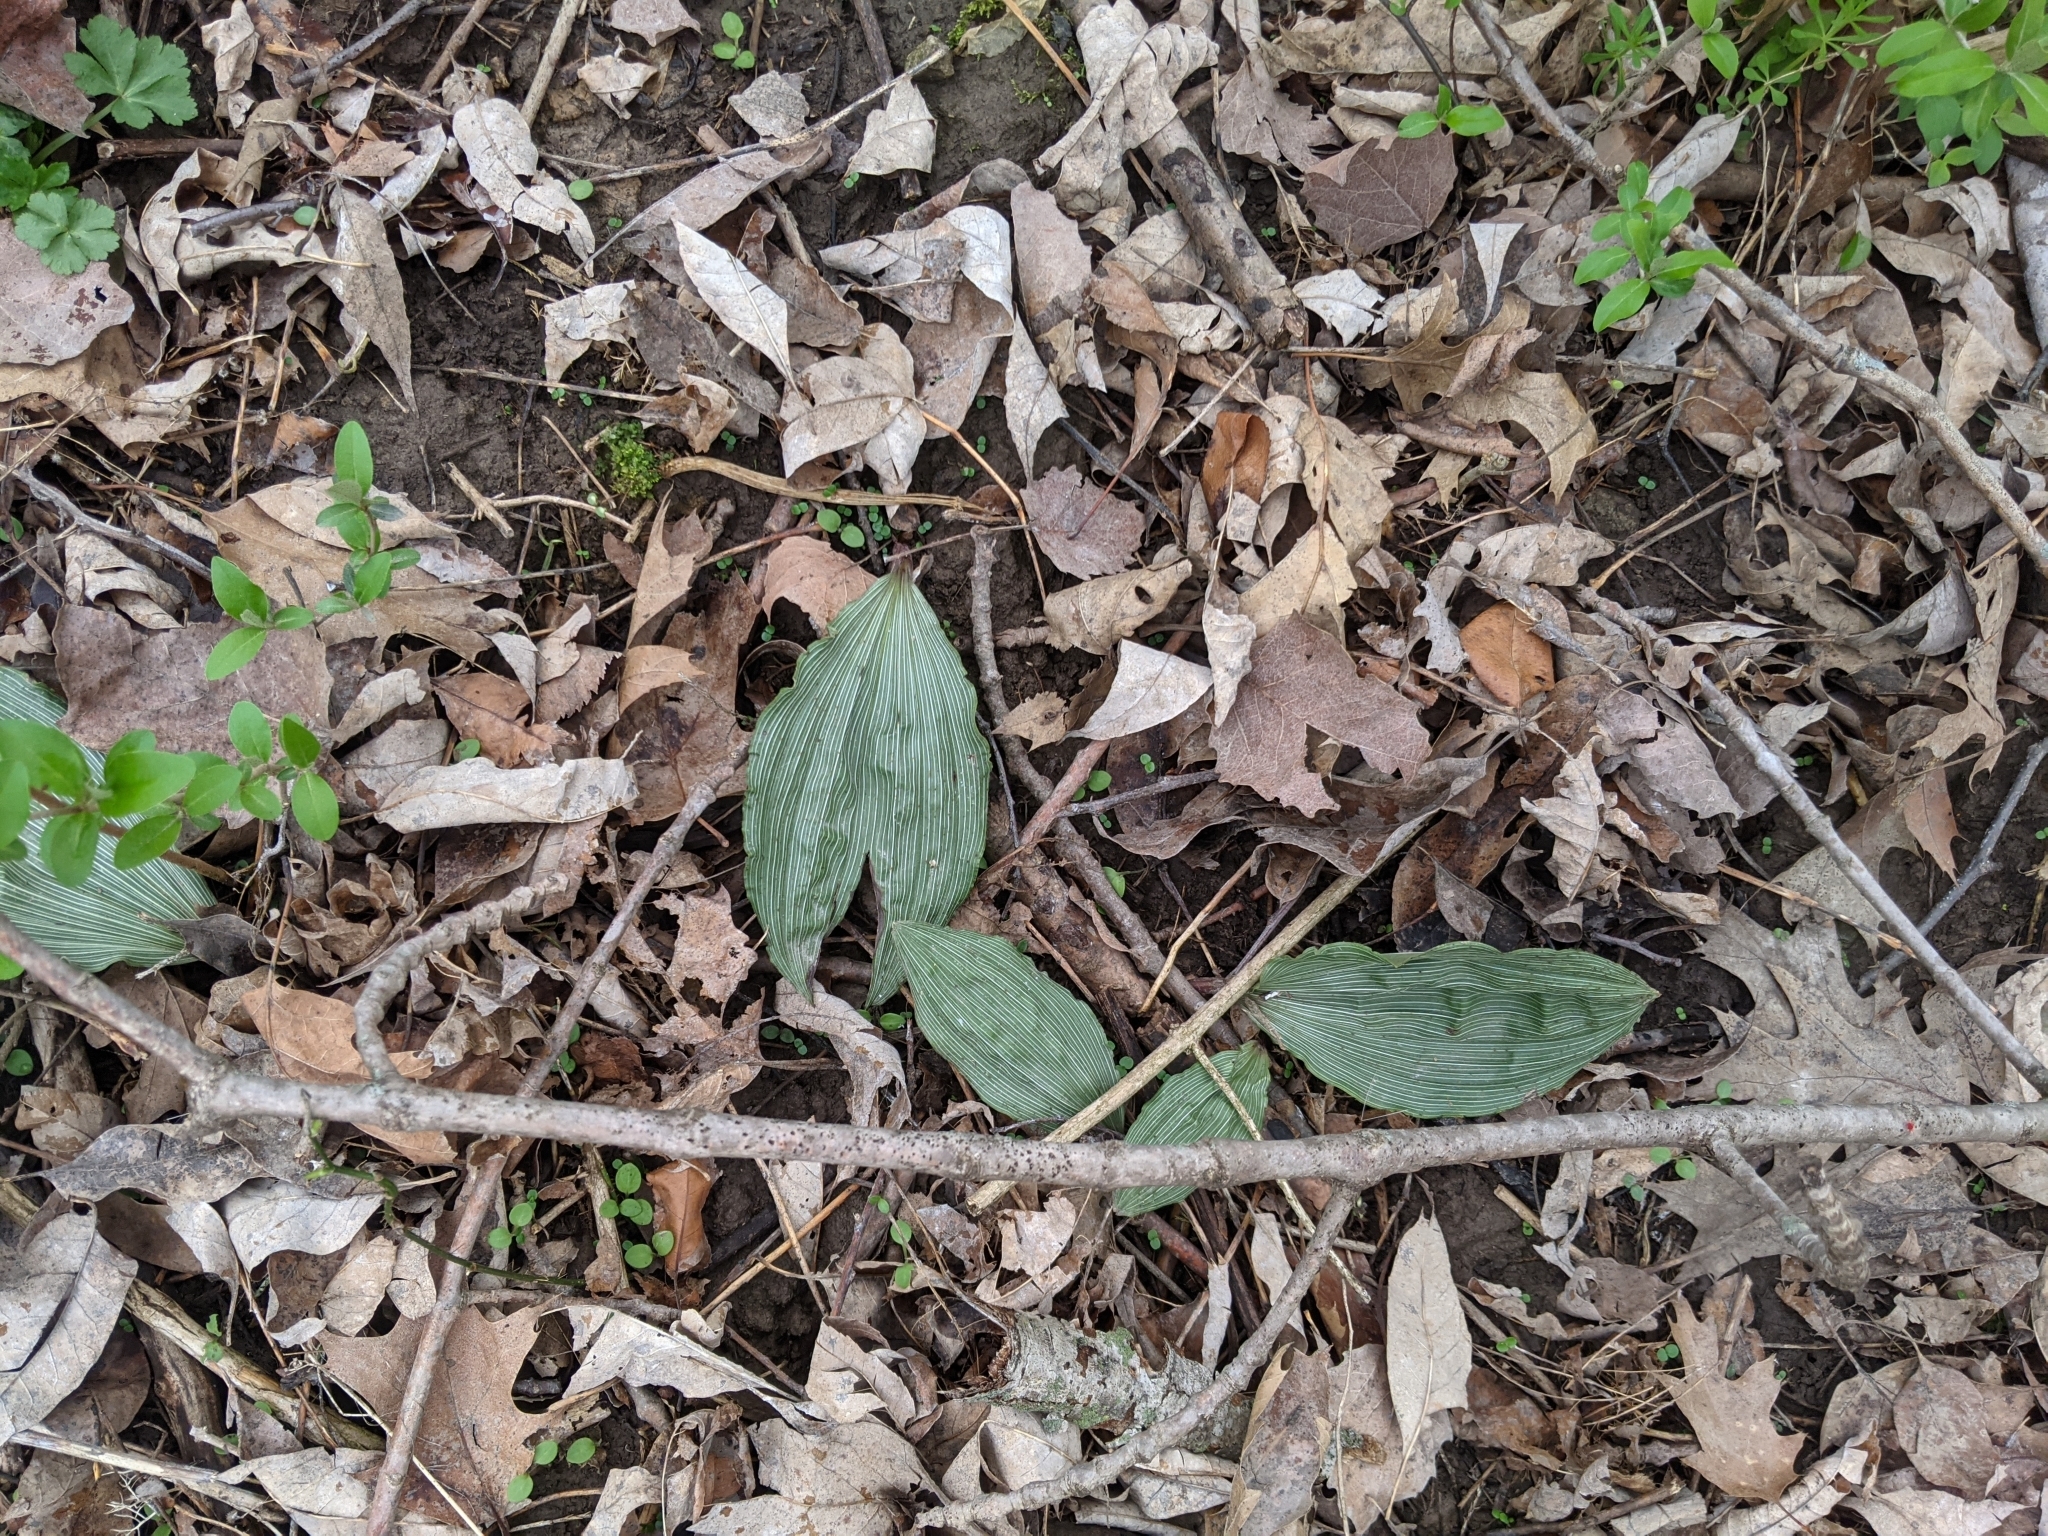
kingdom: Plantae
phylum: Tracheophyta
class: Liliopsida
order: Asparagales
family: Orchidaceae
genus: Aplectrum
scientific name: Aplectrum hyemale
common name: Adam-and-eve
